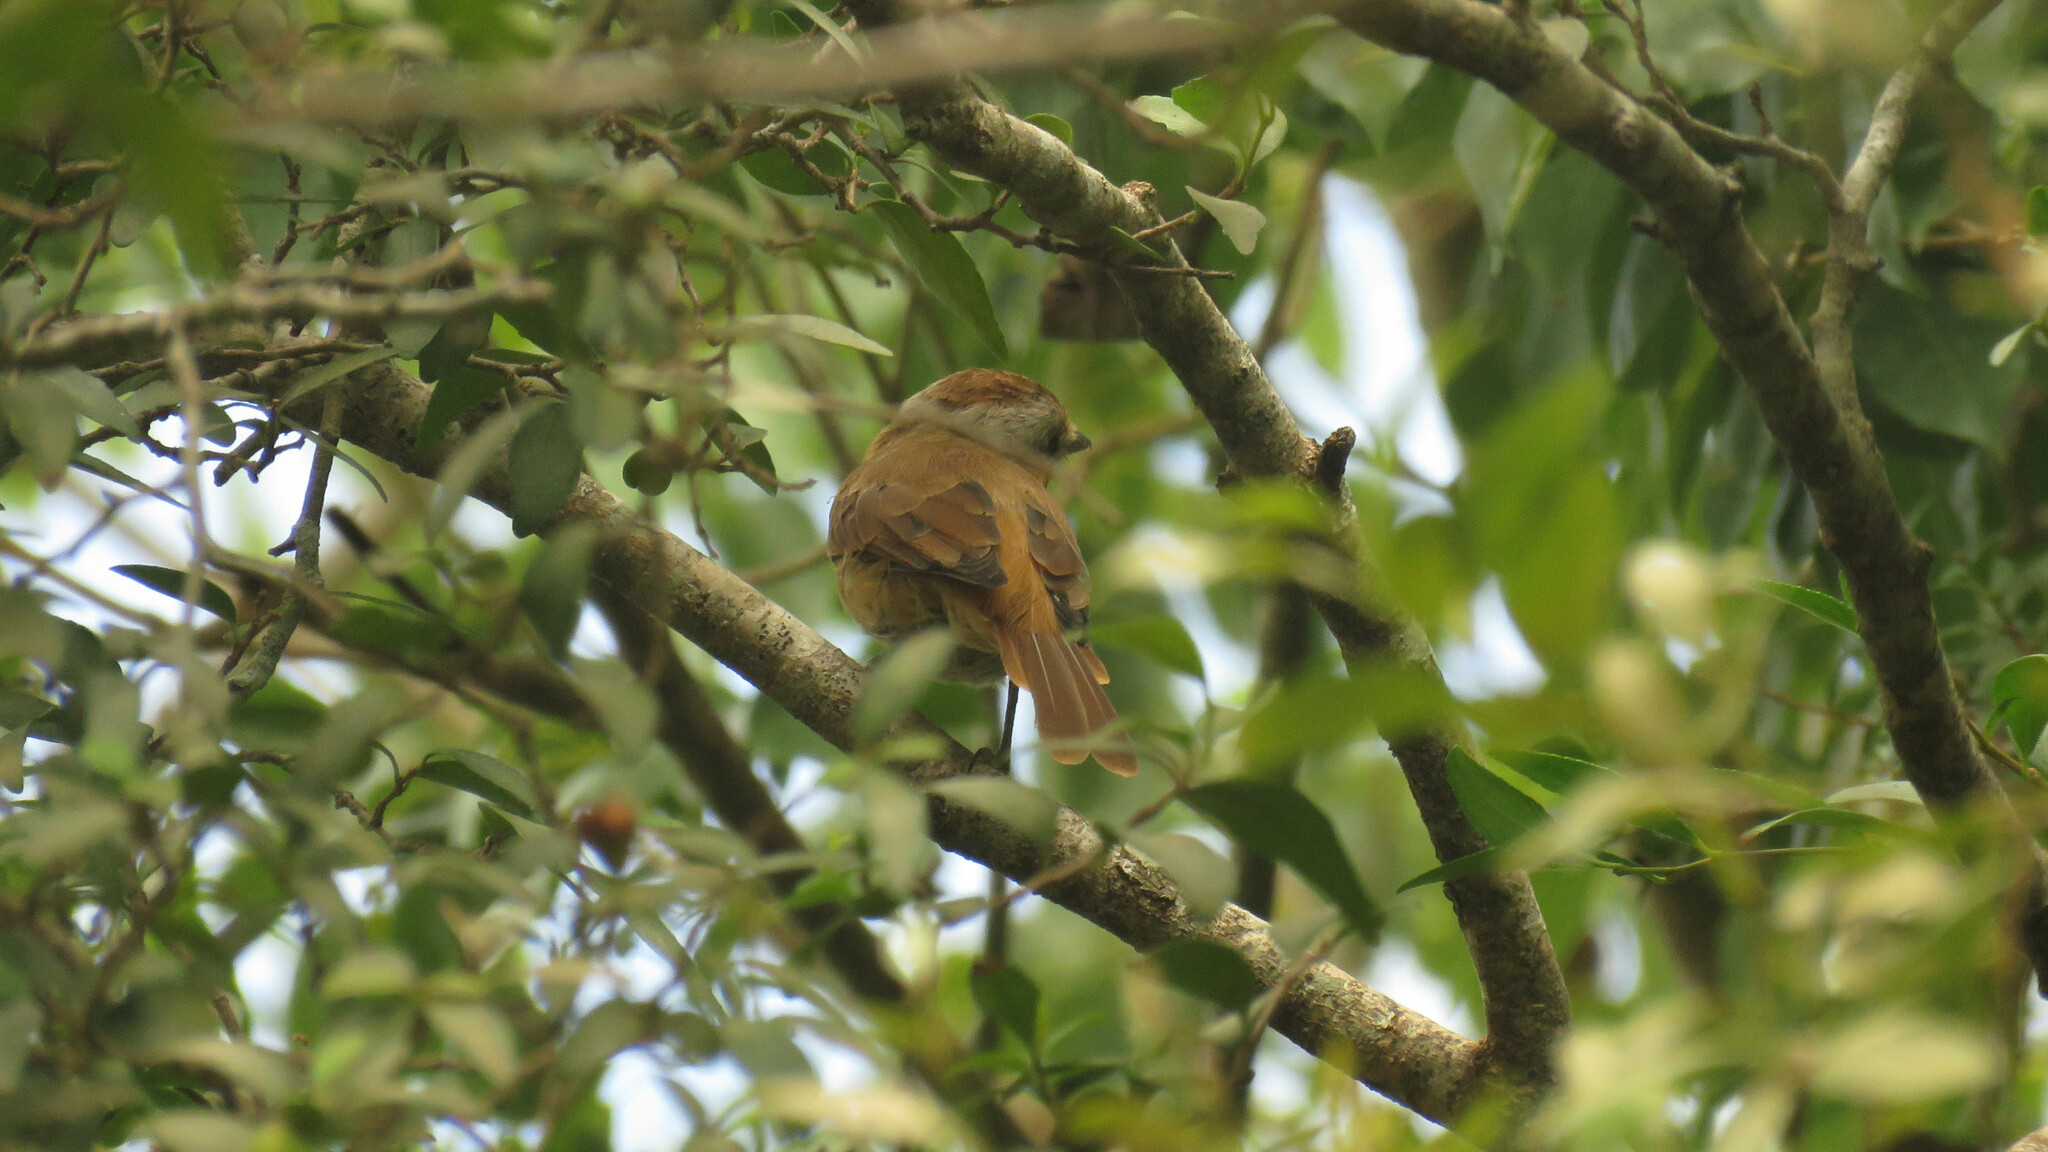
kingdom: Animalia
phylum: Chordata
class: Aves
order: Passeriformes
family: Cotingidae
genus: Pachyramphus
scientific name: Pachyramphus castaneus
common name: Chestnut-crowned becard
